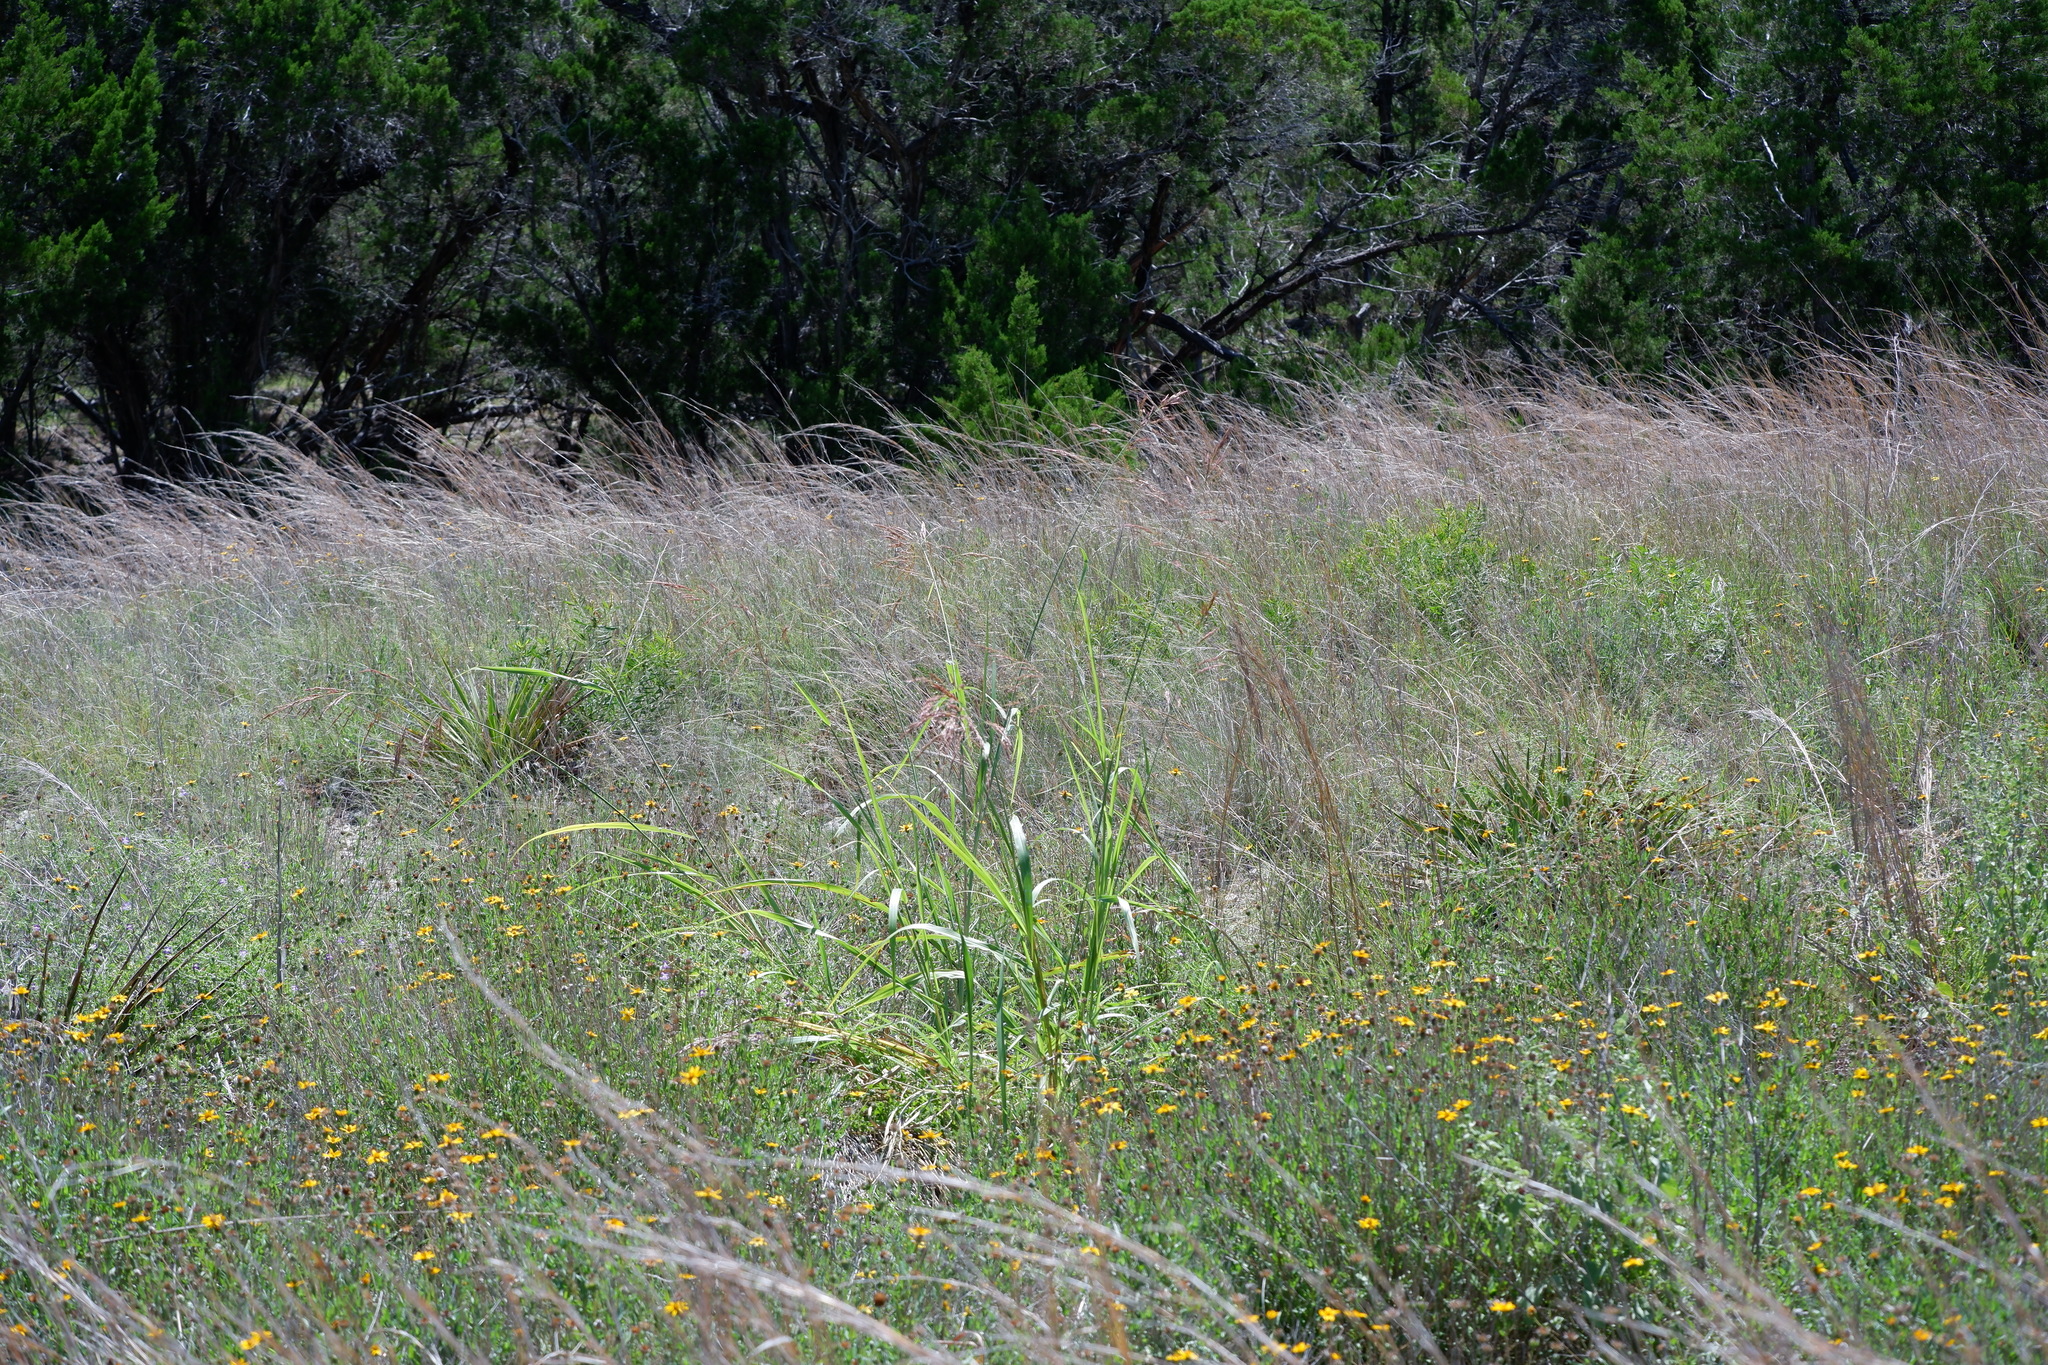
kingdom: Plantae
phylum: Tracheophyta
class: Liliopsida
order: Poales
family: Poaceae
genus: Sorghum
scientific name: Sorghum halepense
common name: Johnson-grass
